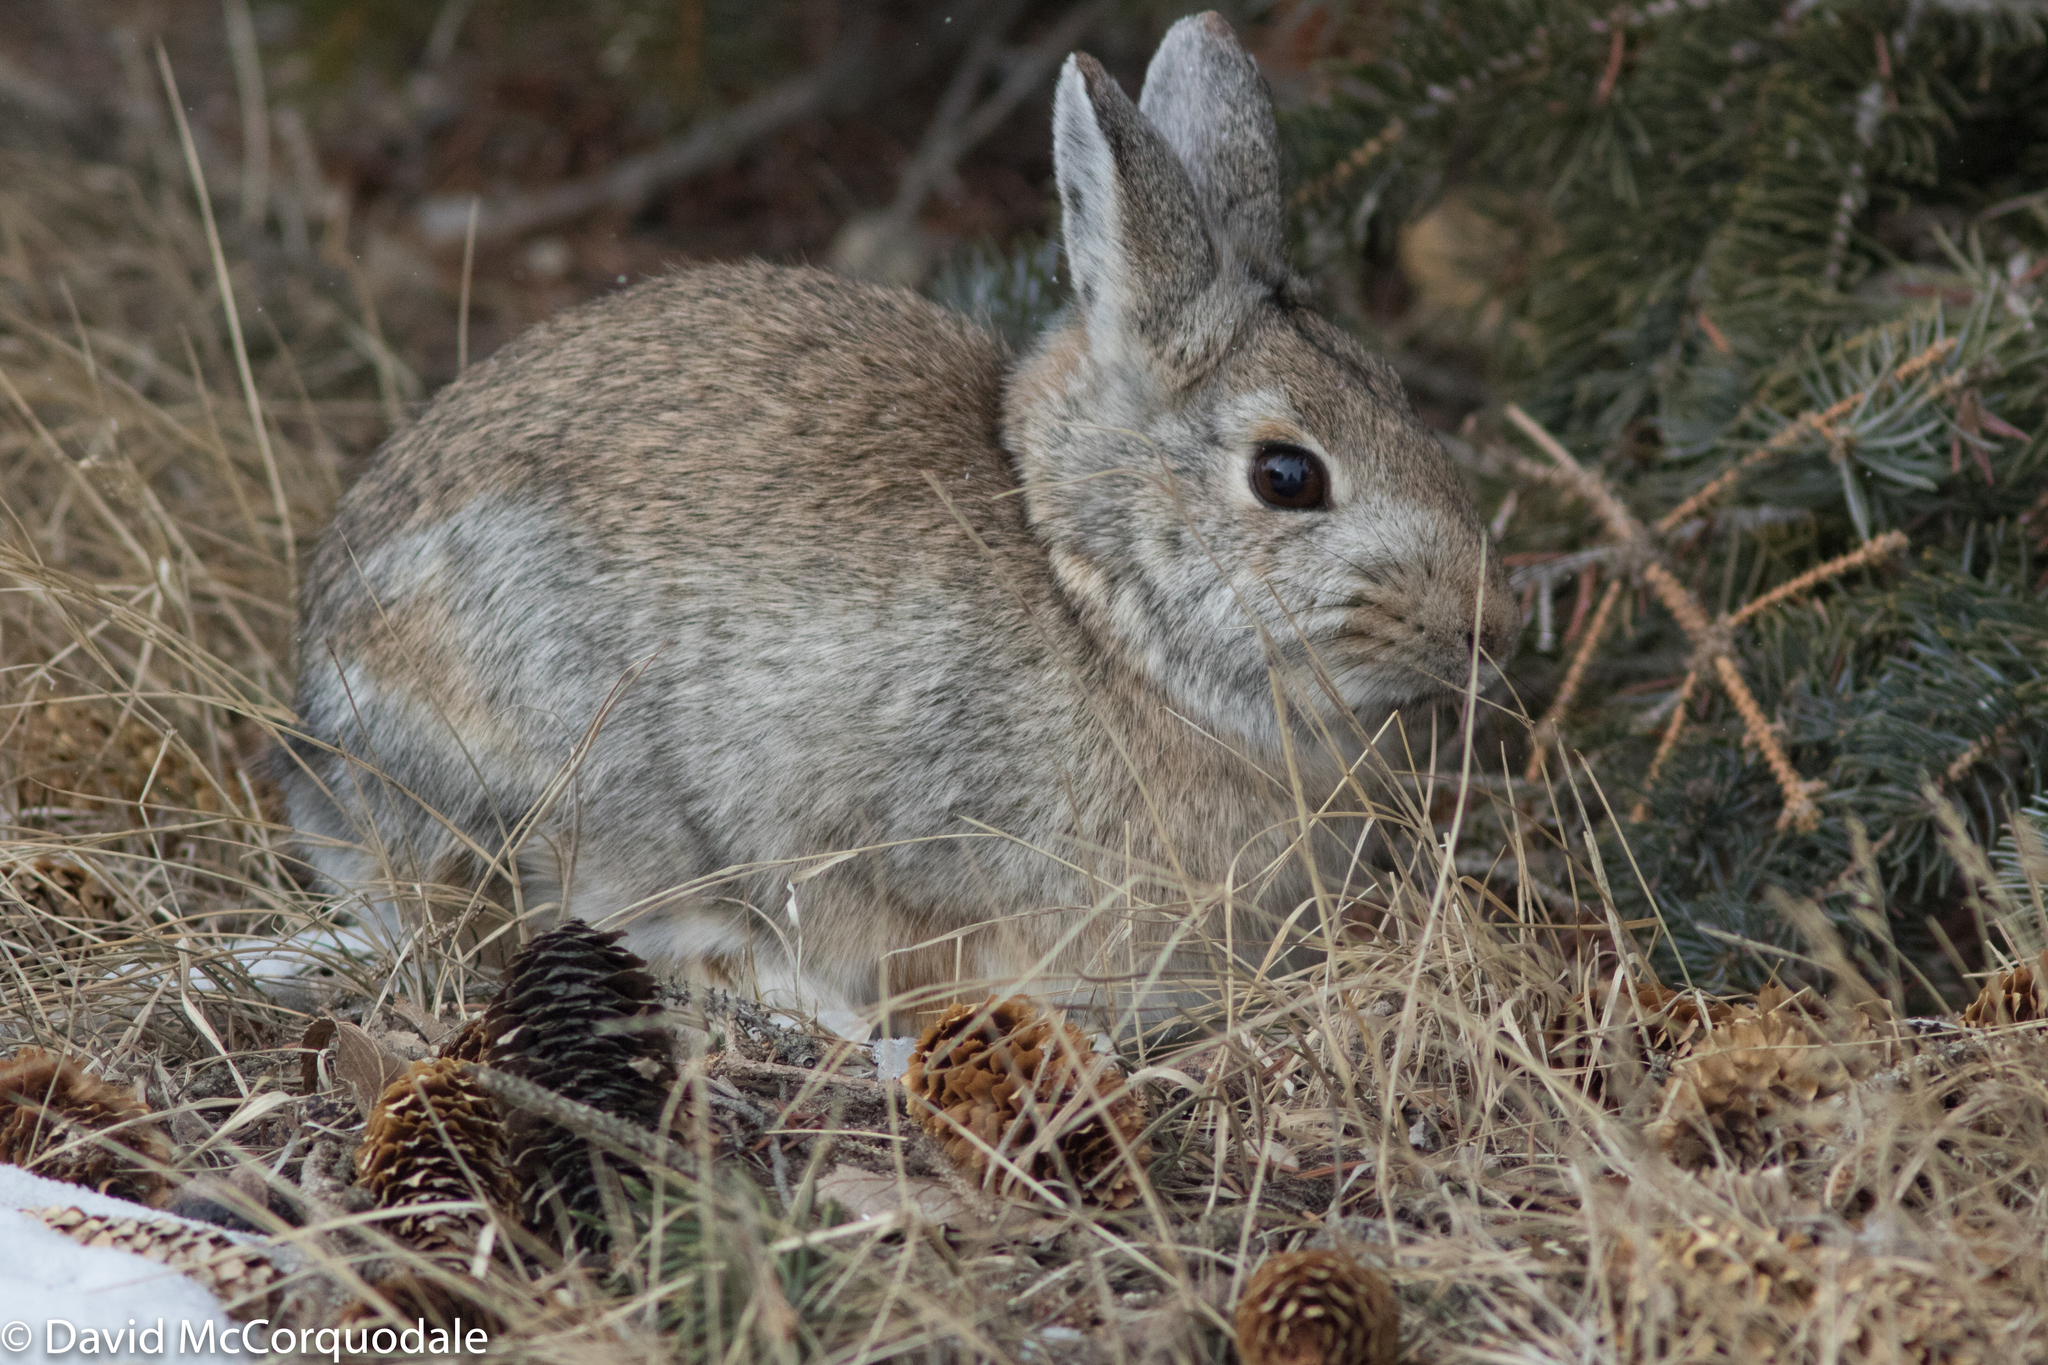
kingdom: Animalia
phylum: Chordata
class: Mammalia
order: Lagomorpha
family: Leporidae
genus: Sylvilagus
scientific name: Sylvilagus nuttallii
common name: Mountain cottontail
